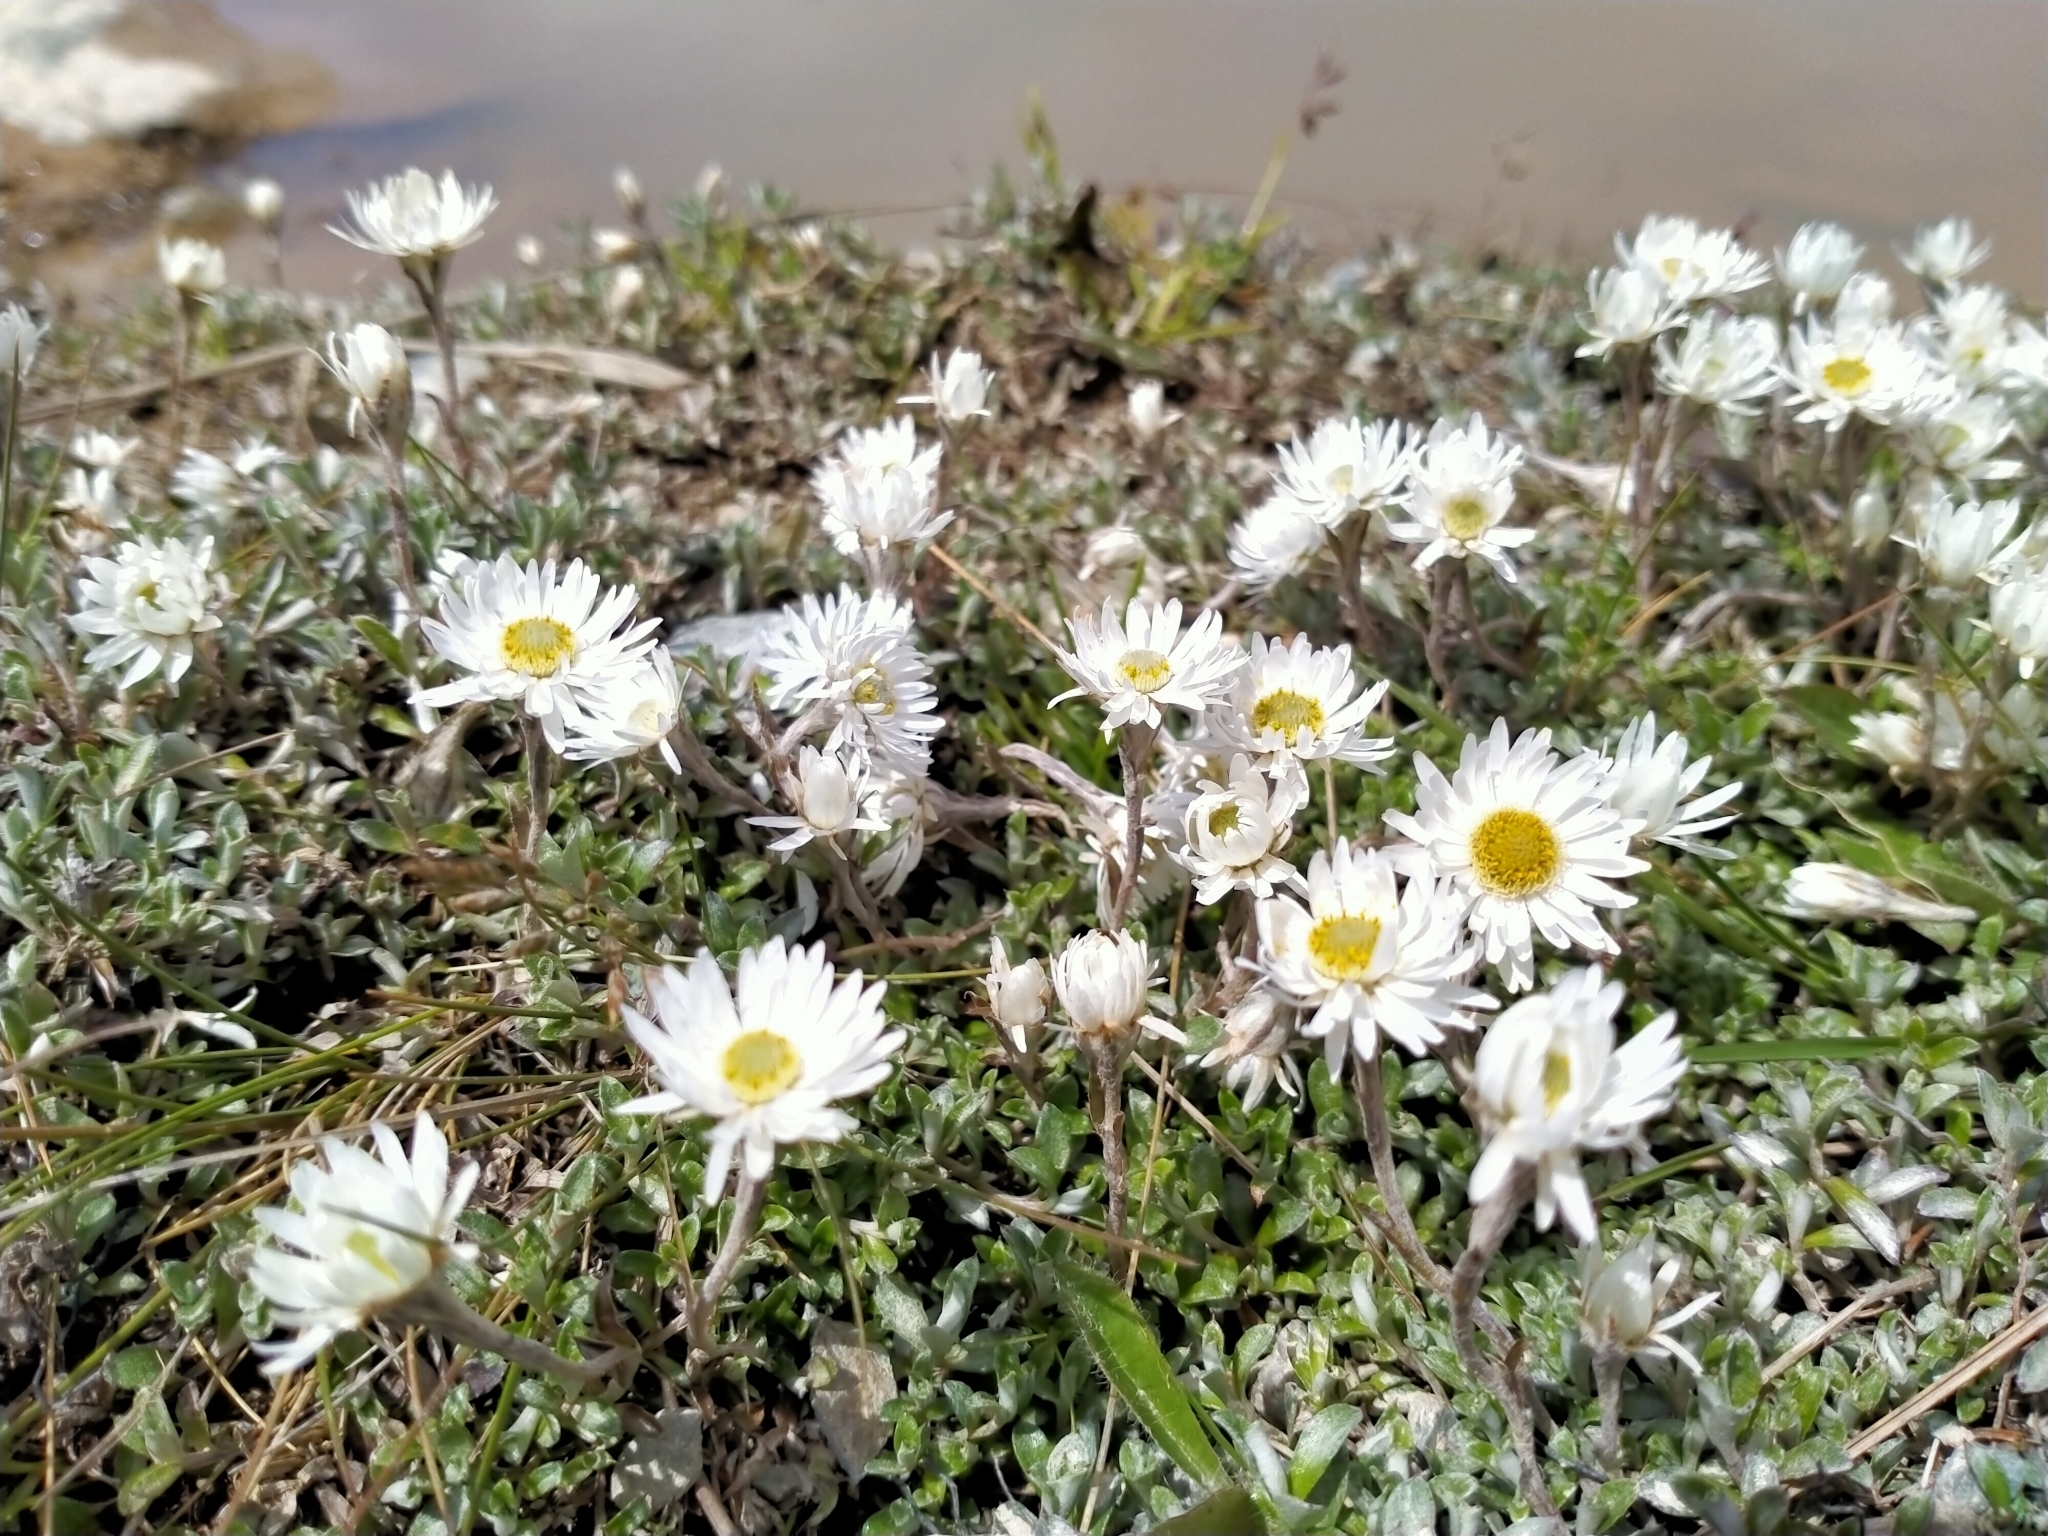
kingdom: Plantae
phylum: Tracheophyta
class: Magnoliopsida
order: Asterales
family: Asteraceae
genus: Anaphalioides
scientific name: Anaphalioides bellidioides
